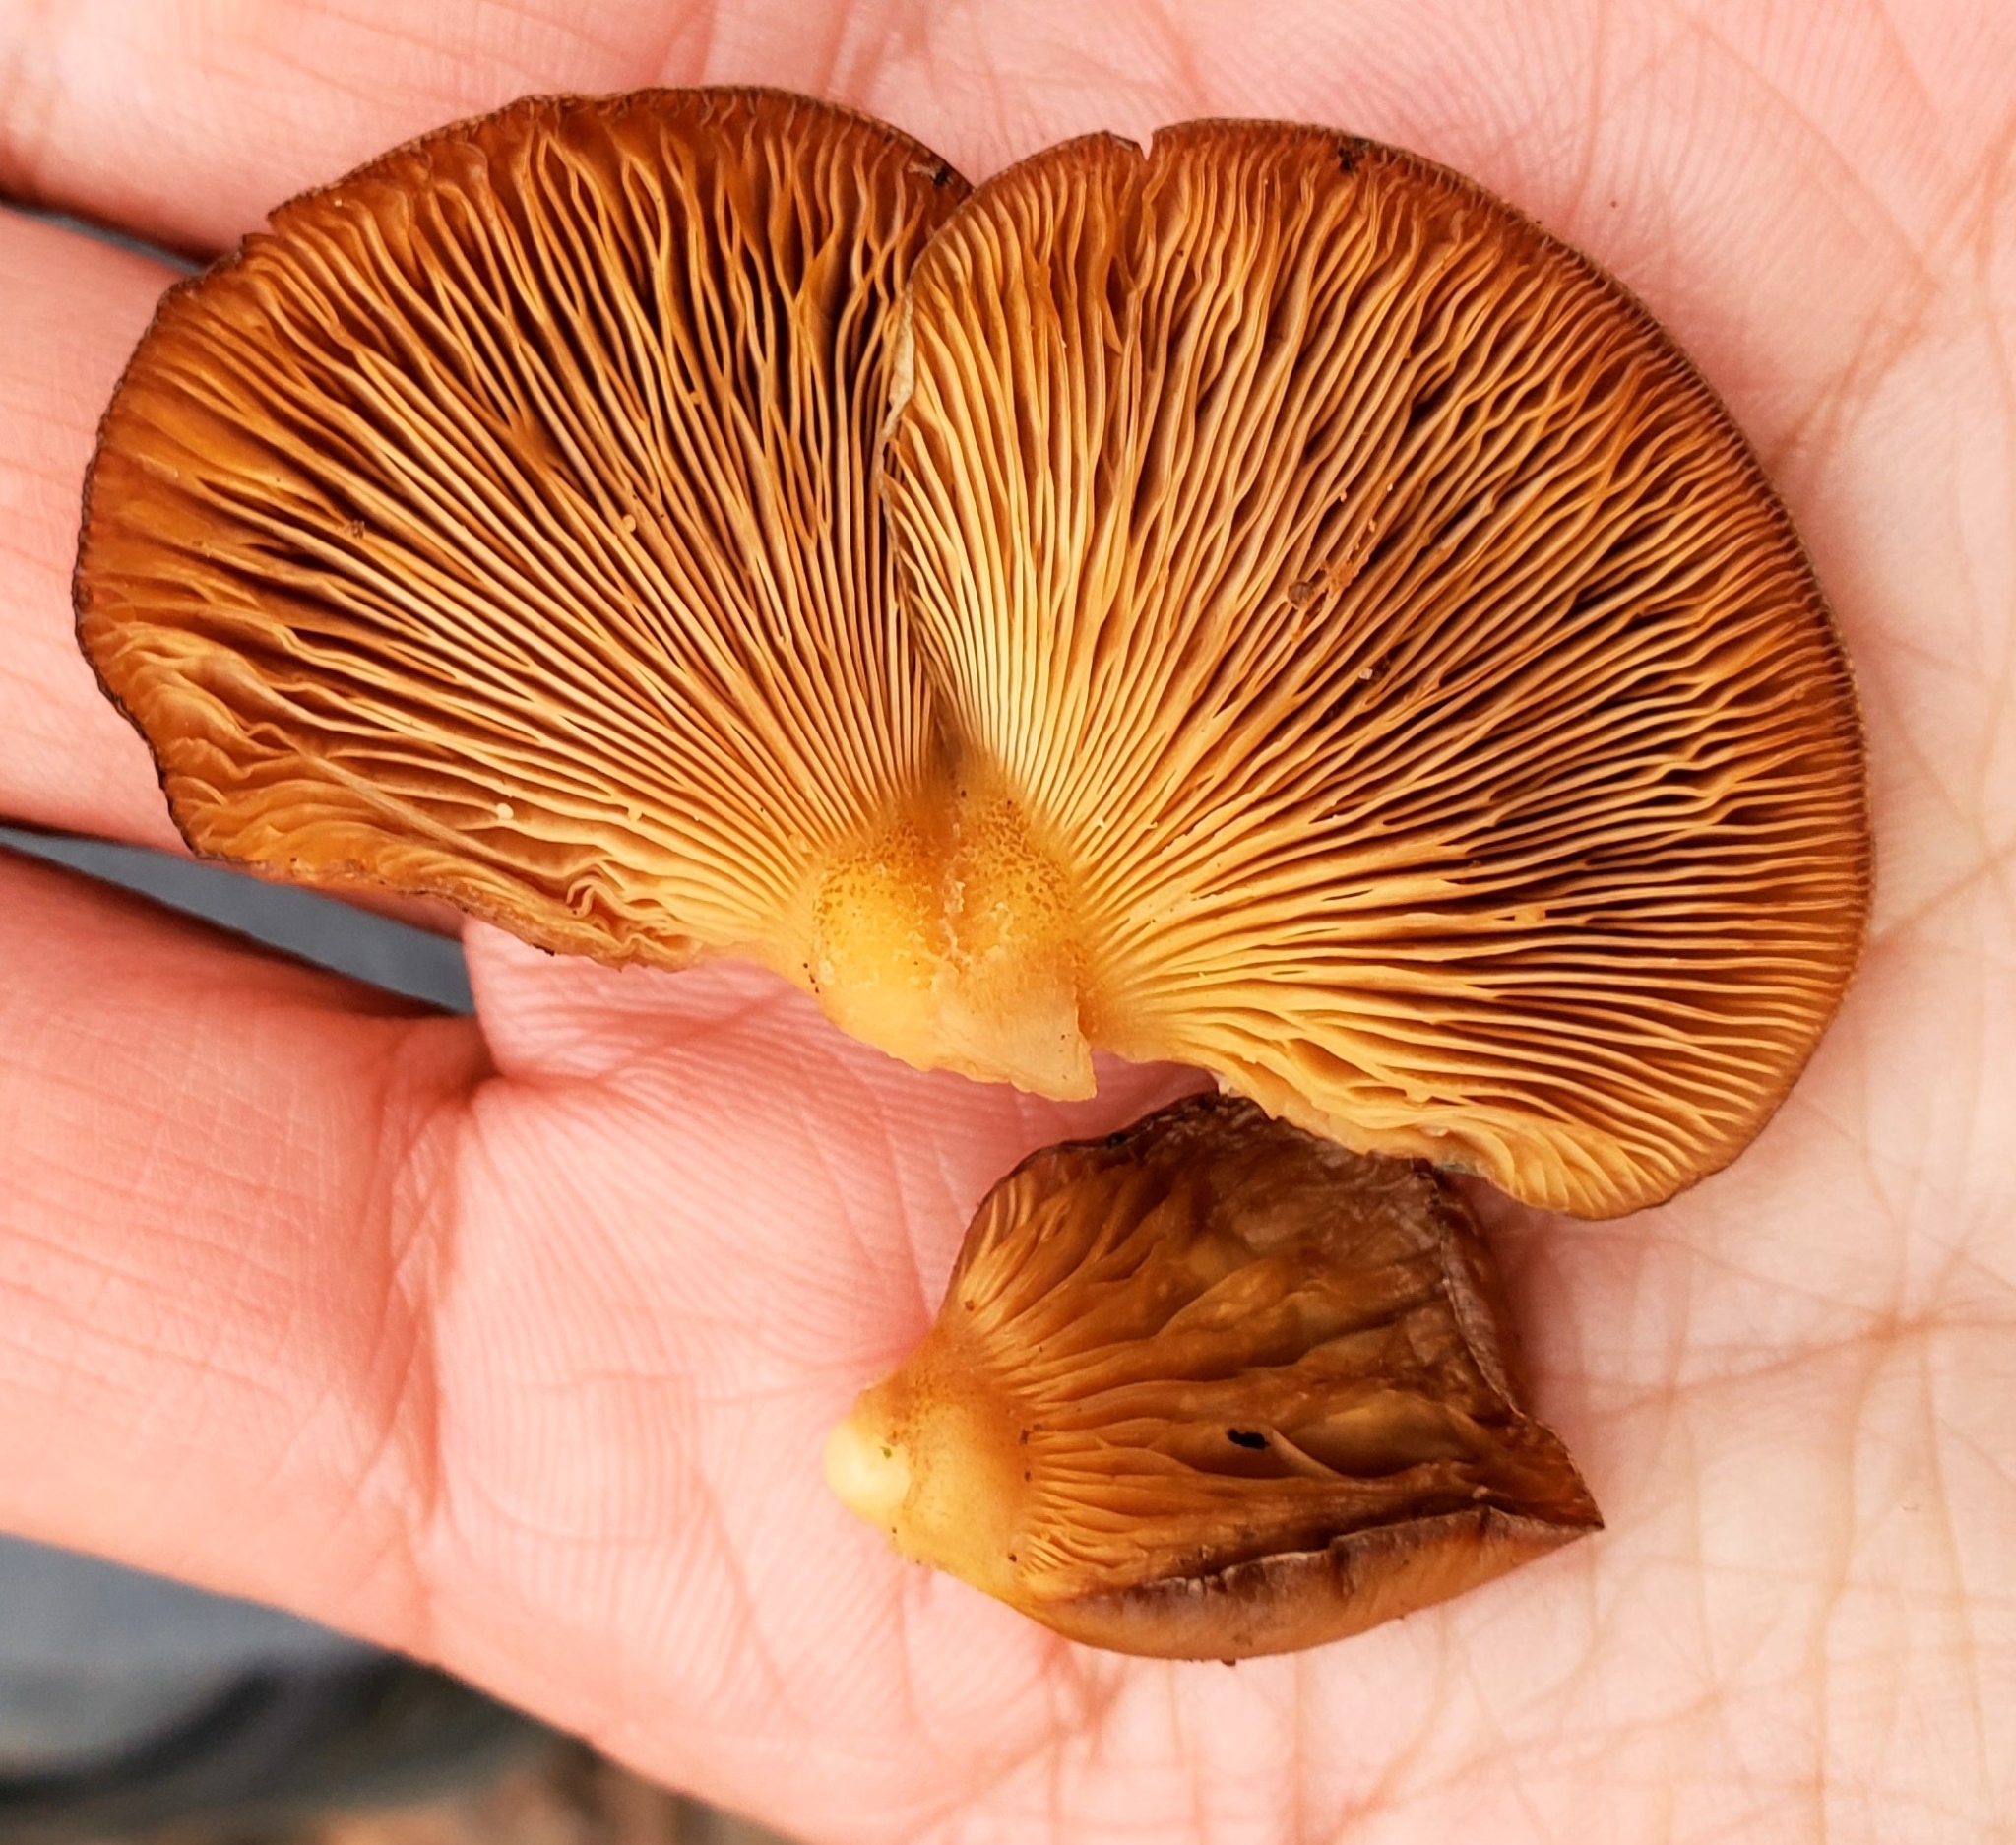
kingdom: Fungi
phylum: Basidiomycota
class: Agaricomycetes
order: Agaricales
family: Sarcomyxaceae
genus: Sarcomyxa
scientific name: Sarcomyxa serotina
